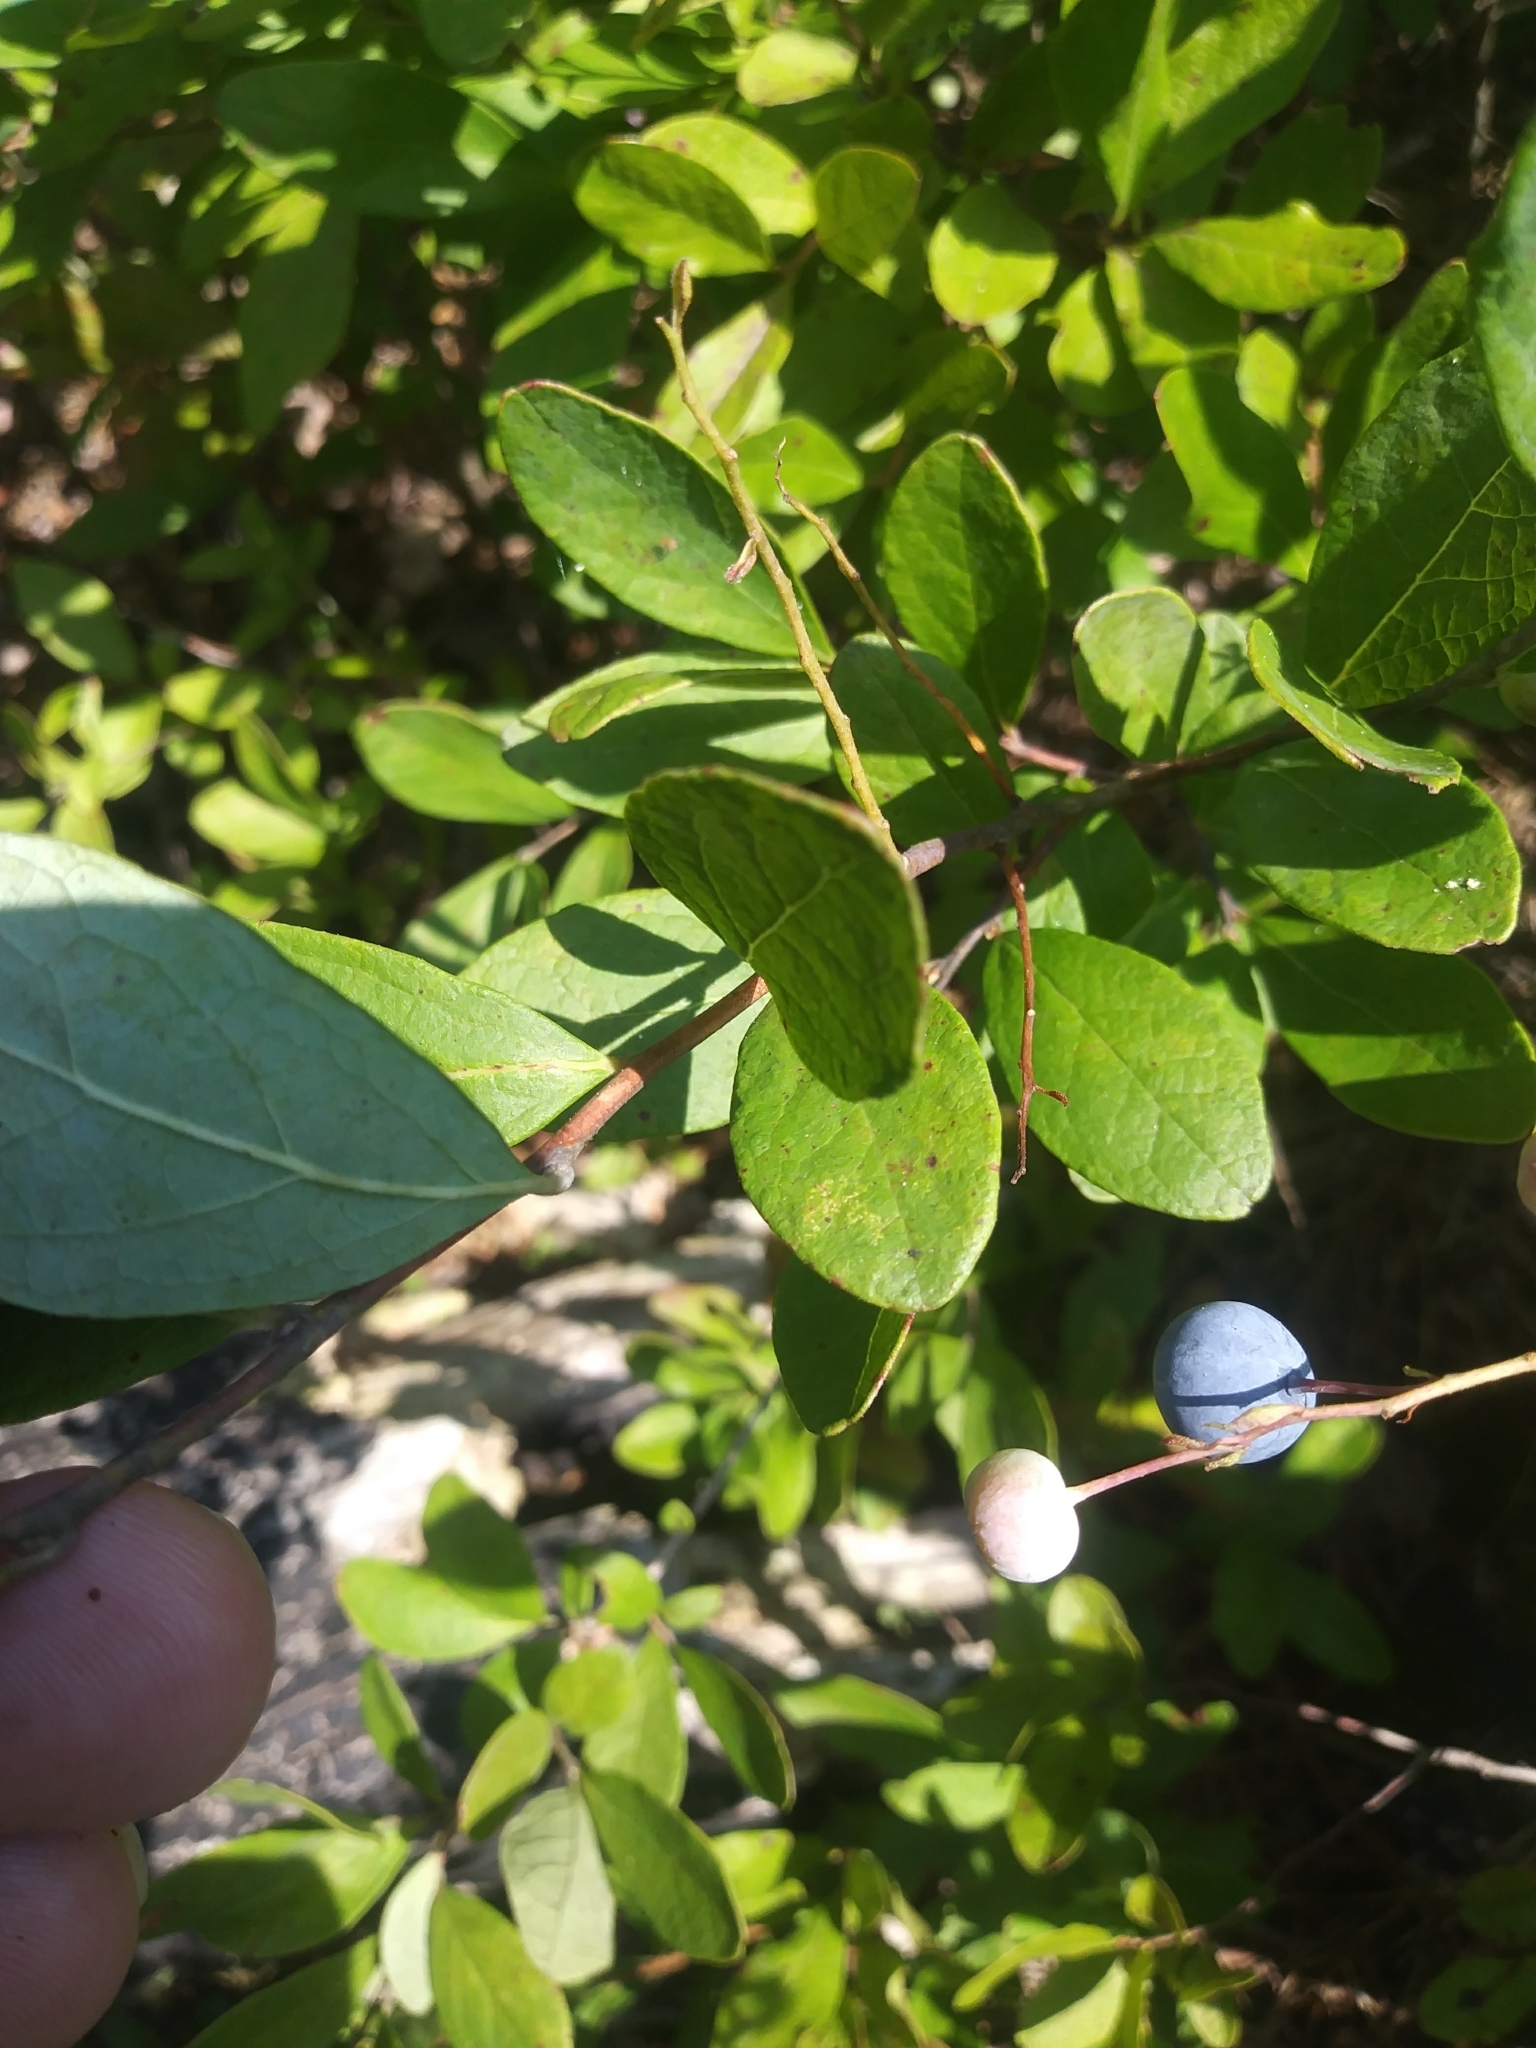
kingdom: Plantae
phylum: Tracheophyta
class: Magnoliopsida
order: Ericales
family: Ericaceae
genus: Gaylussacia
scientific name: Gaylussacia frondosa
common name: Dangleberry
